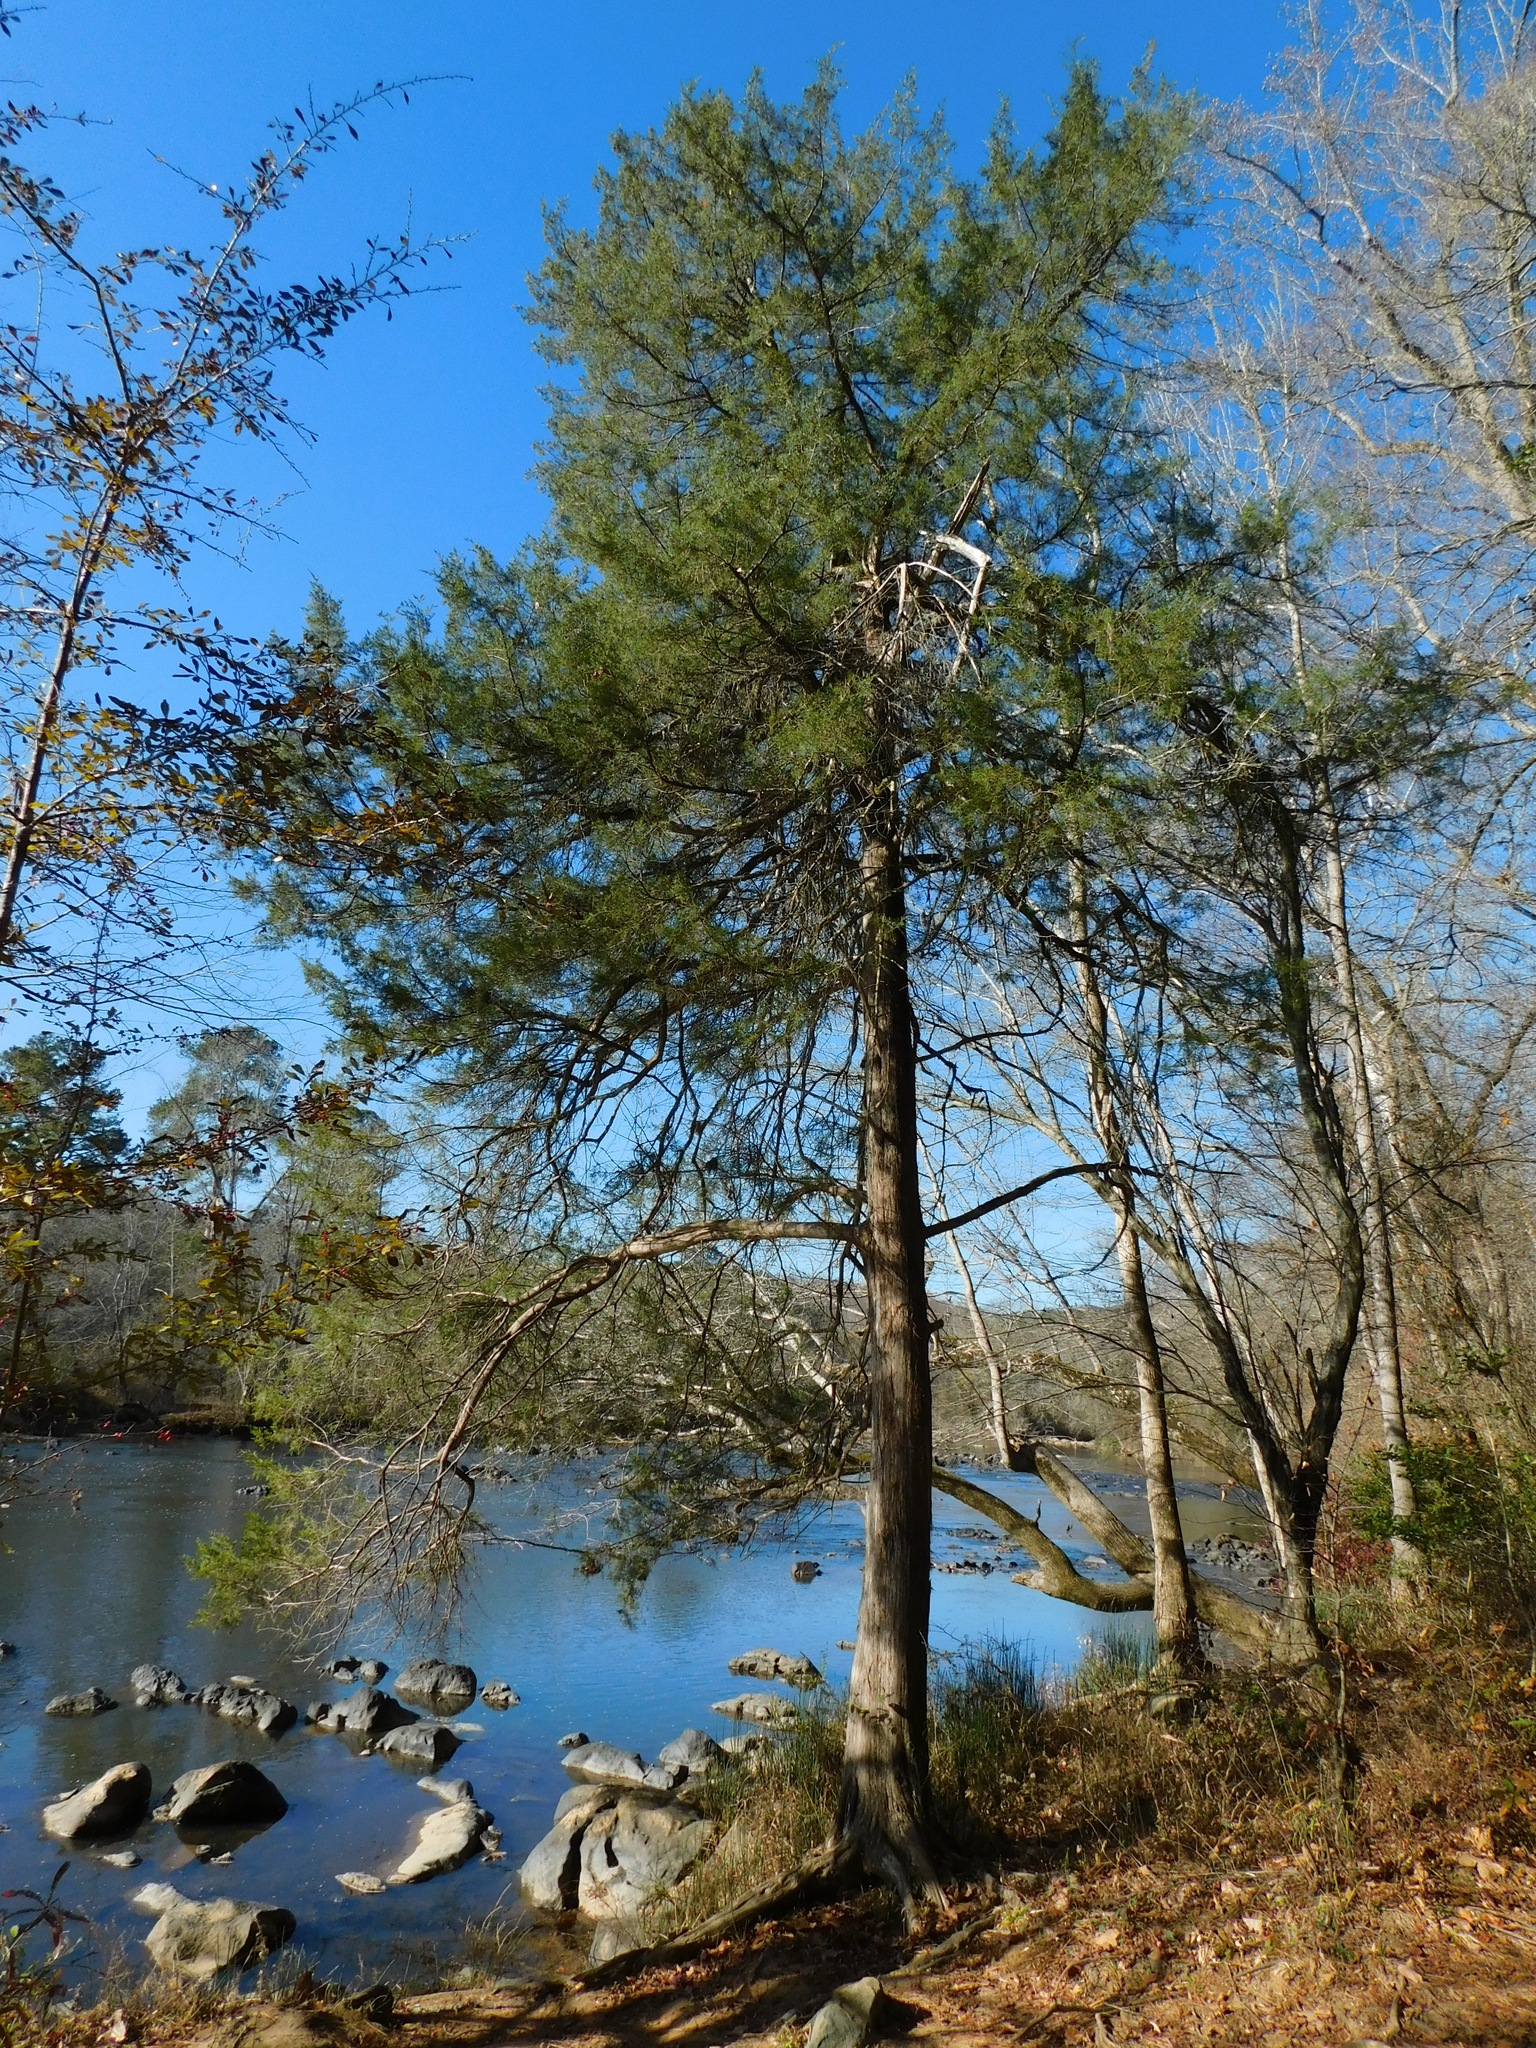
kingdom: Plantae
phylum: Tracheophyta
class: Pinopsida
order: Pinales
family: Cupressaceae
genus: Juniperus
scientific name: Juniperus virginiana
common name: Red juniper
